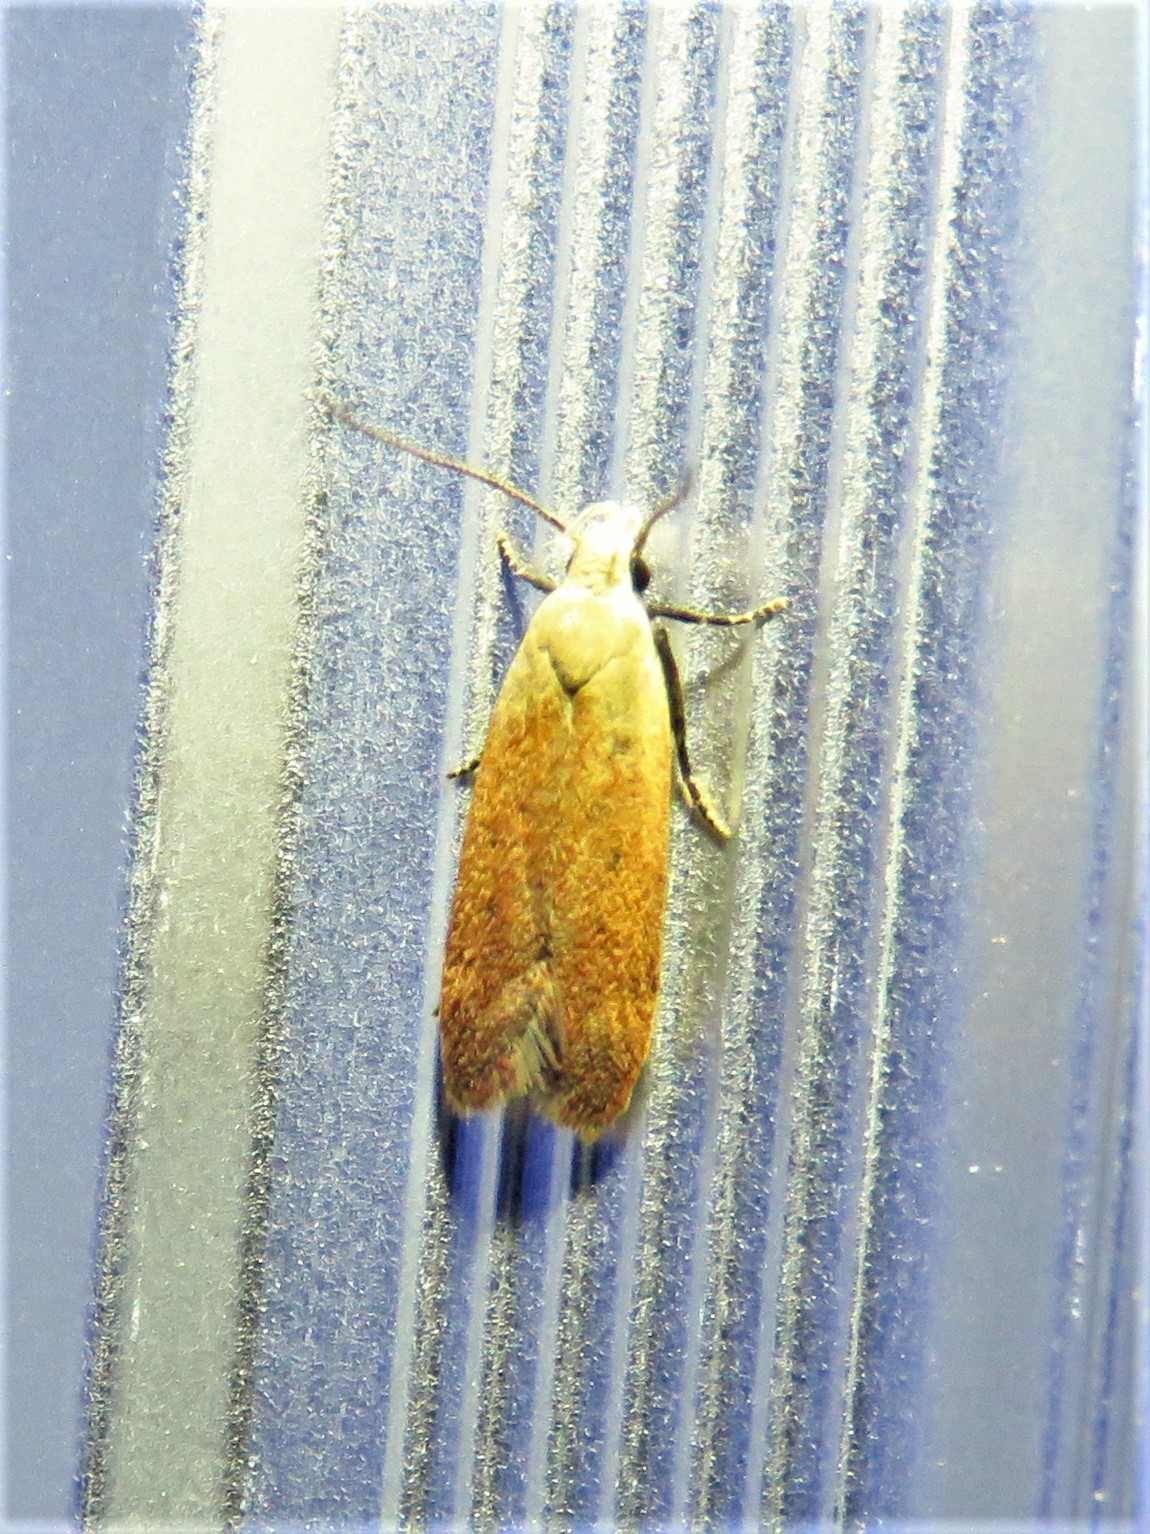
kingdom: Animalia
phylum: Arthropoda
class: Insecta
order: Lepidoptera
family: Gelechiidae
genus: Anacampsis
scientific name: Anacampsis fullonella
